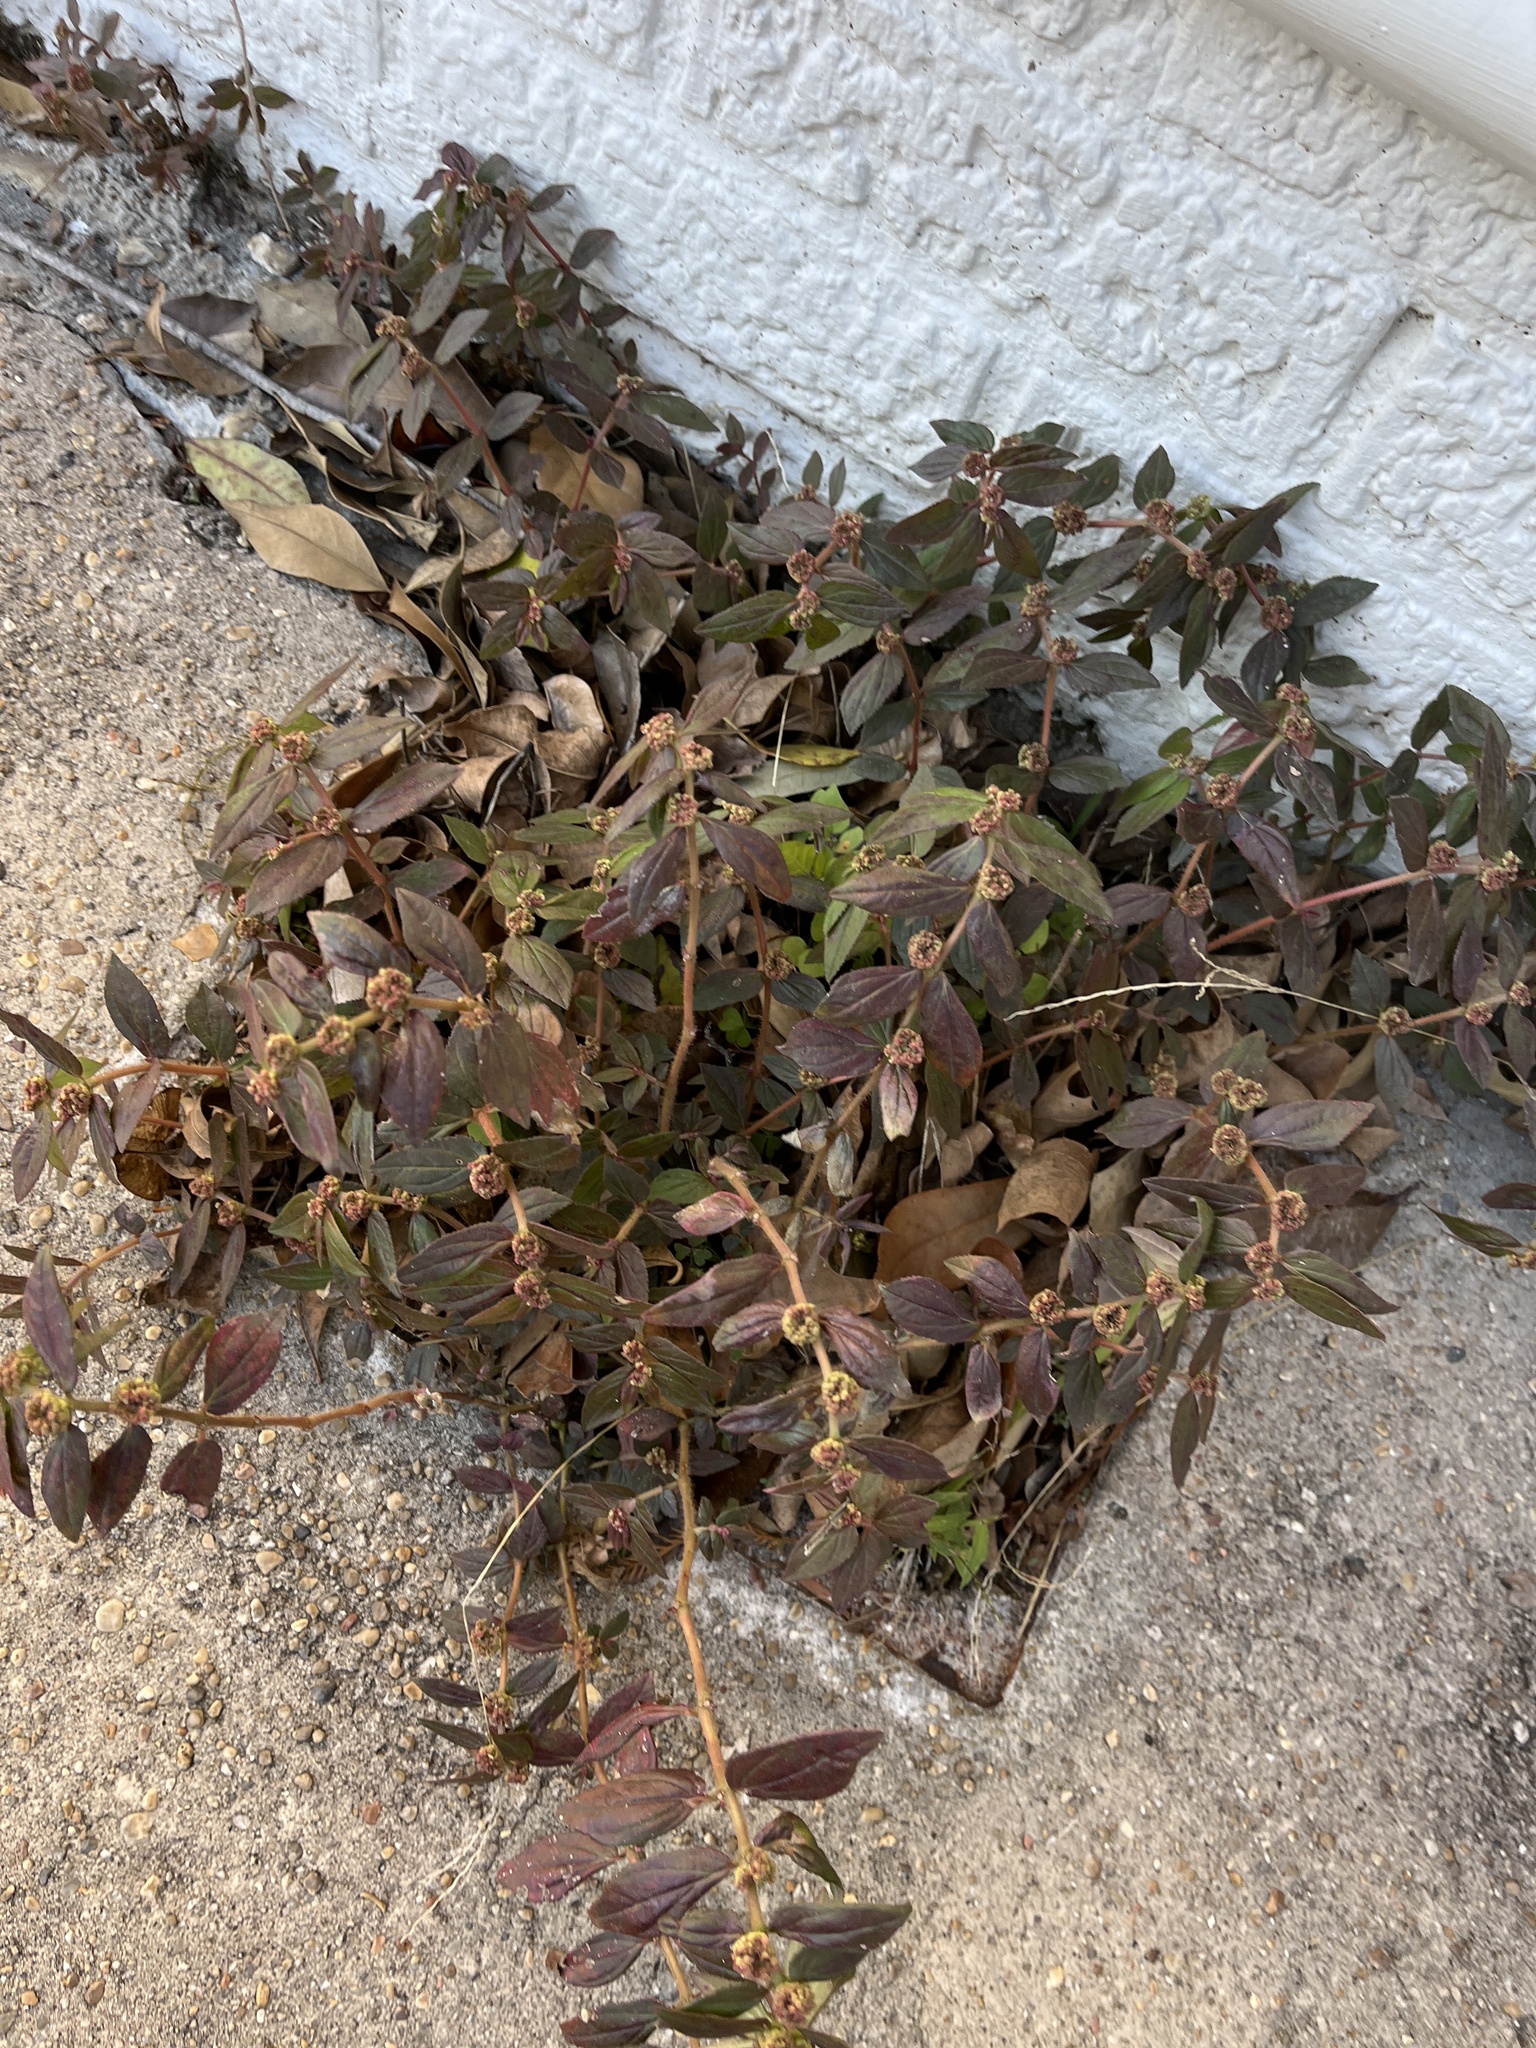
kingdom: Plantae
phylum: Tracheophyta
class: Magnoliopsida
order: Malpighiales
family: Euphorbiaceae
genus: Euphorbia
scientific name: Euphorbia hirta
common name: Pillpod sandmat
